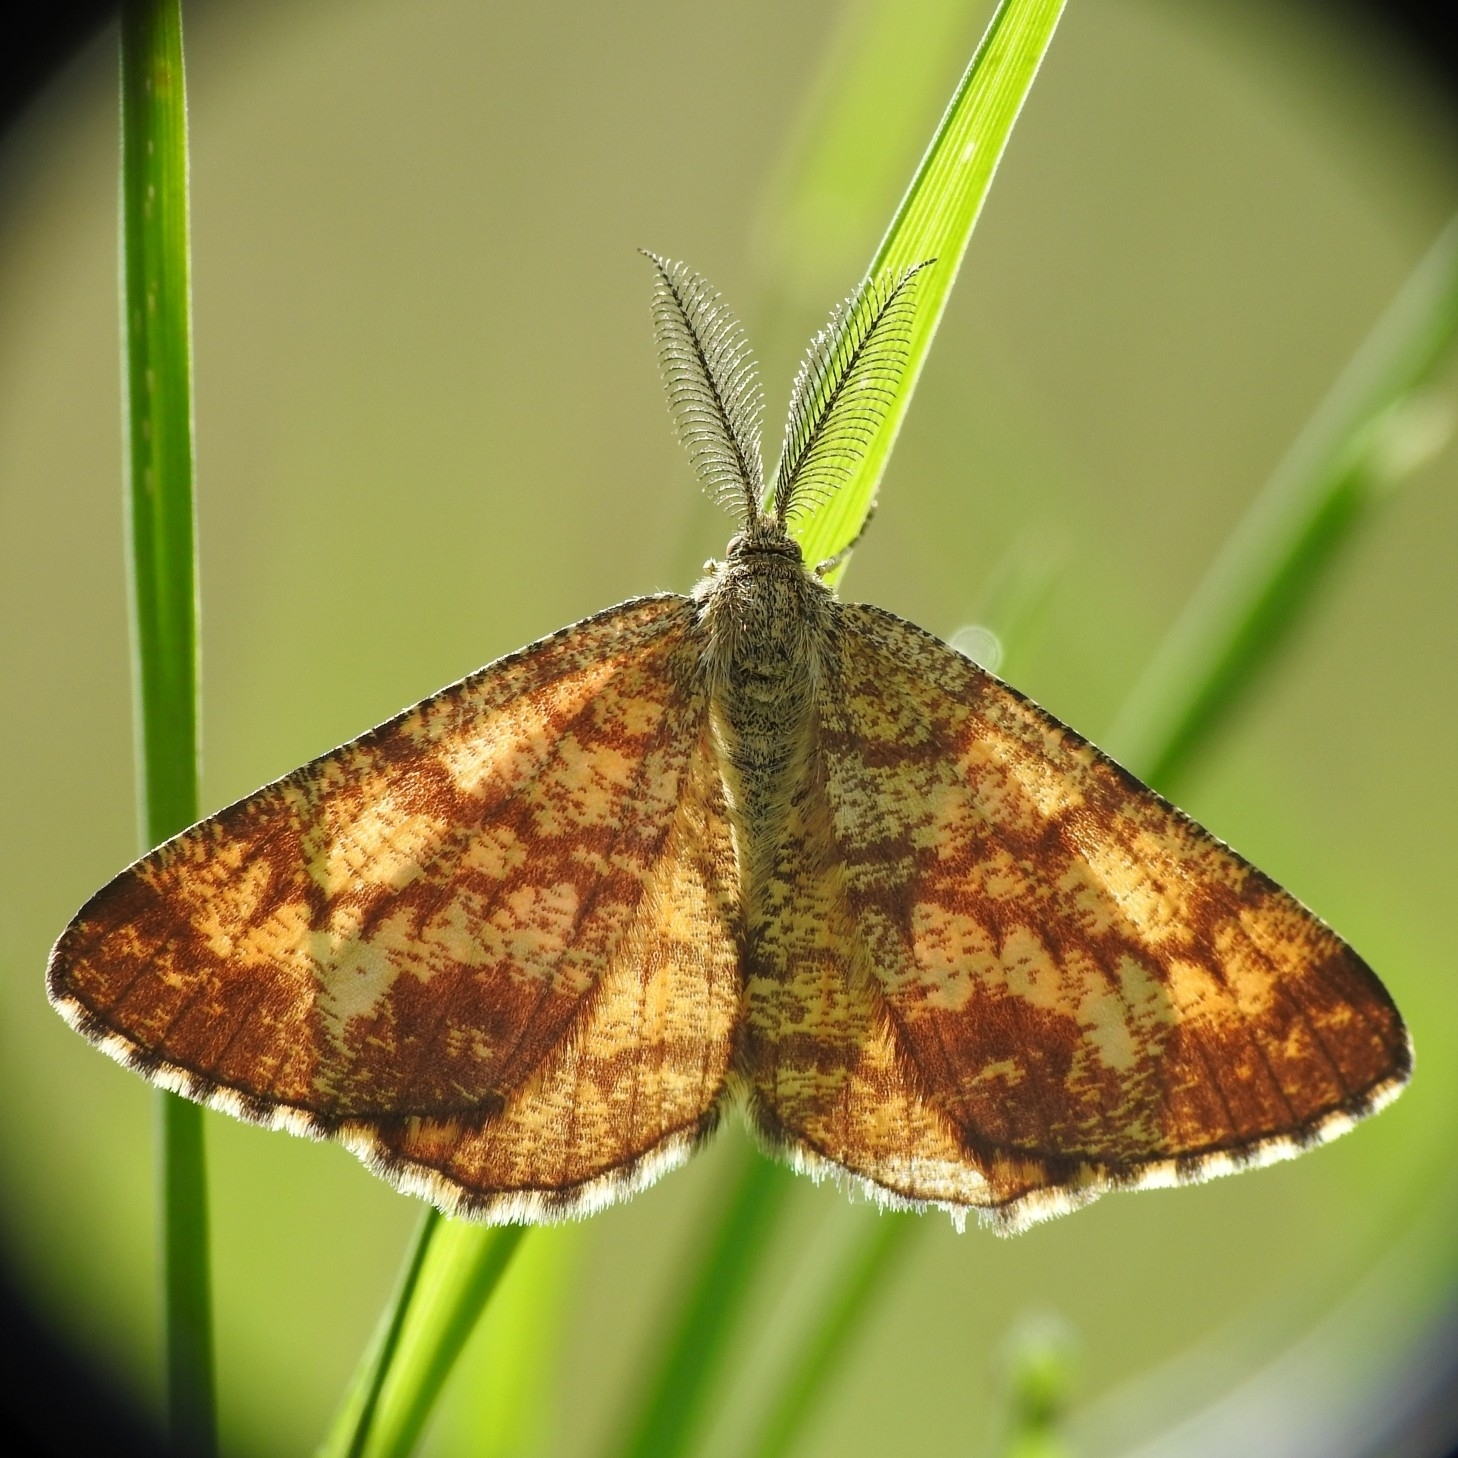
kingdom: Animalia
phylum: Arthropoda
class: Insecta
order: Lepidoptera
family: Geometridae
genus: Ematurga
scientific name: Ematurga atomaria
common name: Common heath
